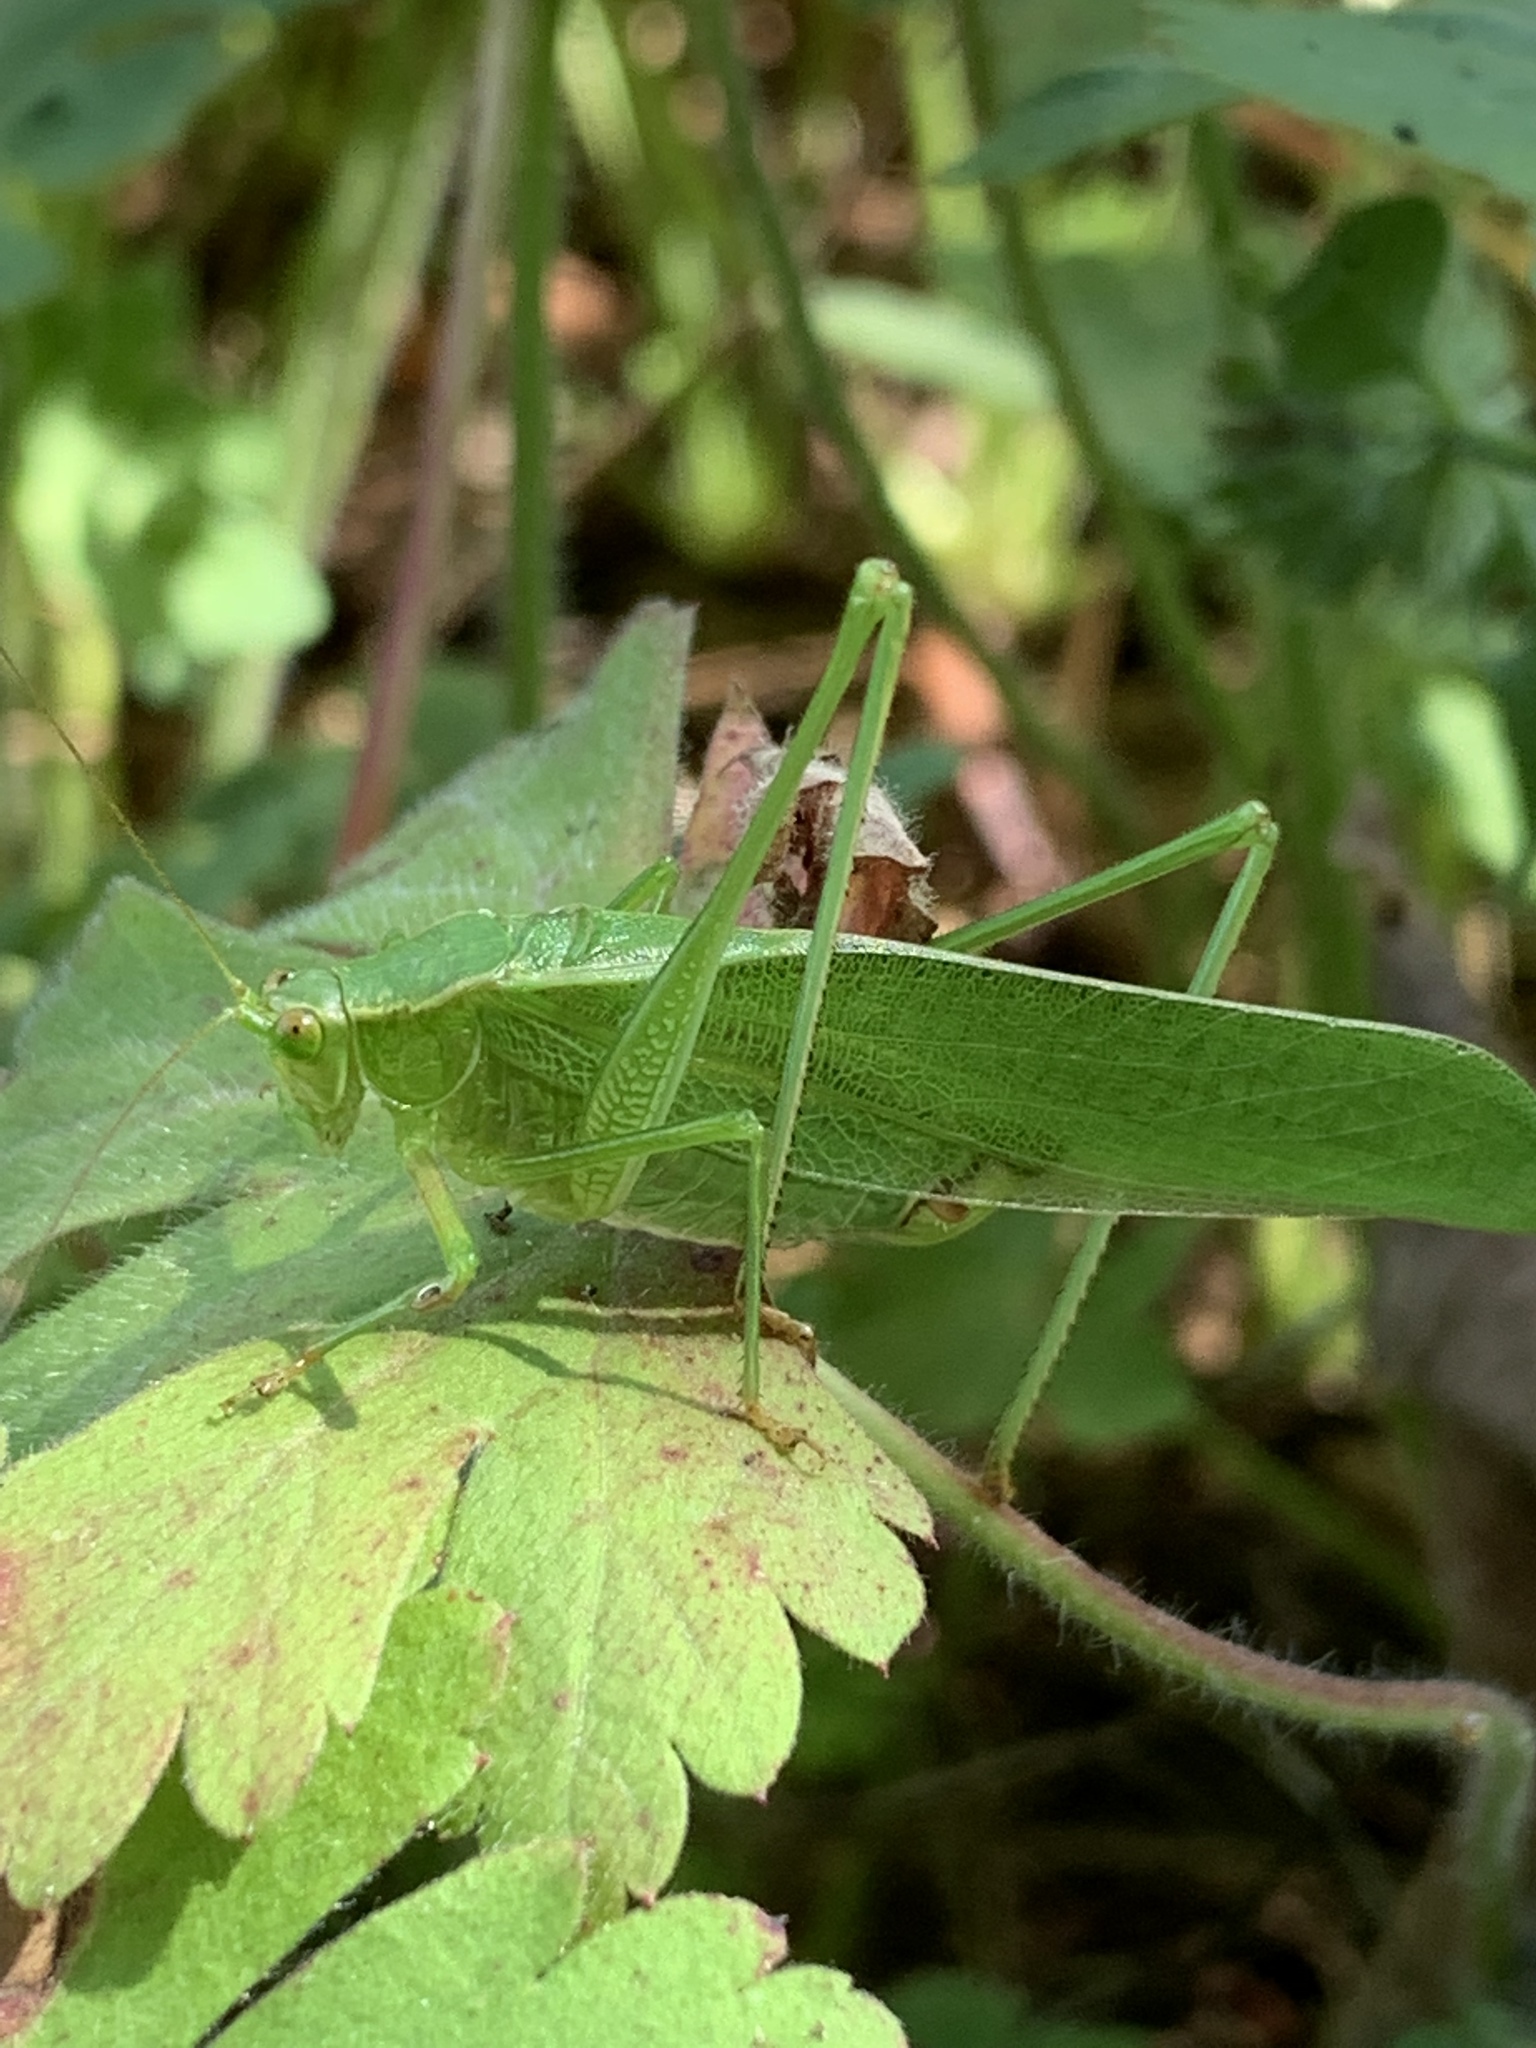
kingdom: Animalia
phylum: Arthropoda
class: Insecta
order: Orthoptera
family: Tettigoniidae
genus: Scudderia
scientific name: Scudderia furcata
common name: Fork-tailed bush katydid
